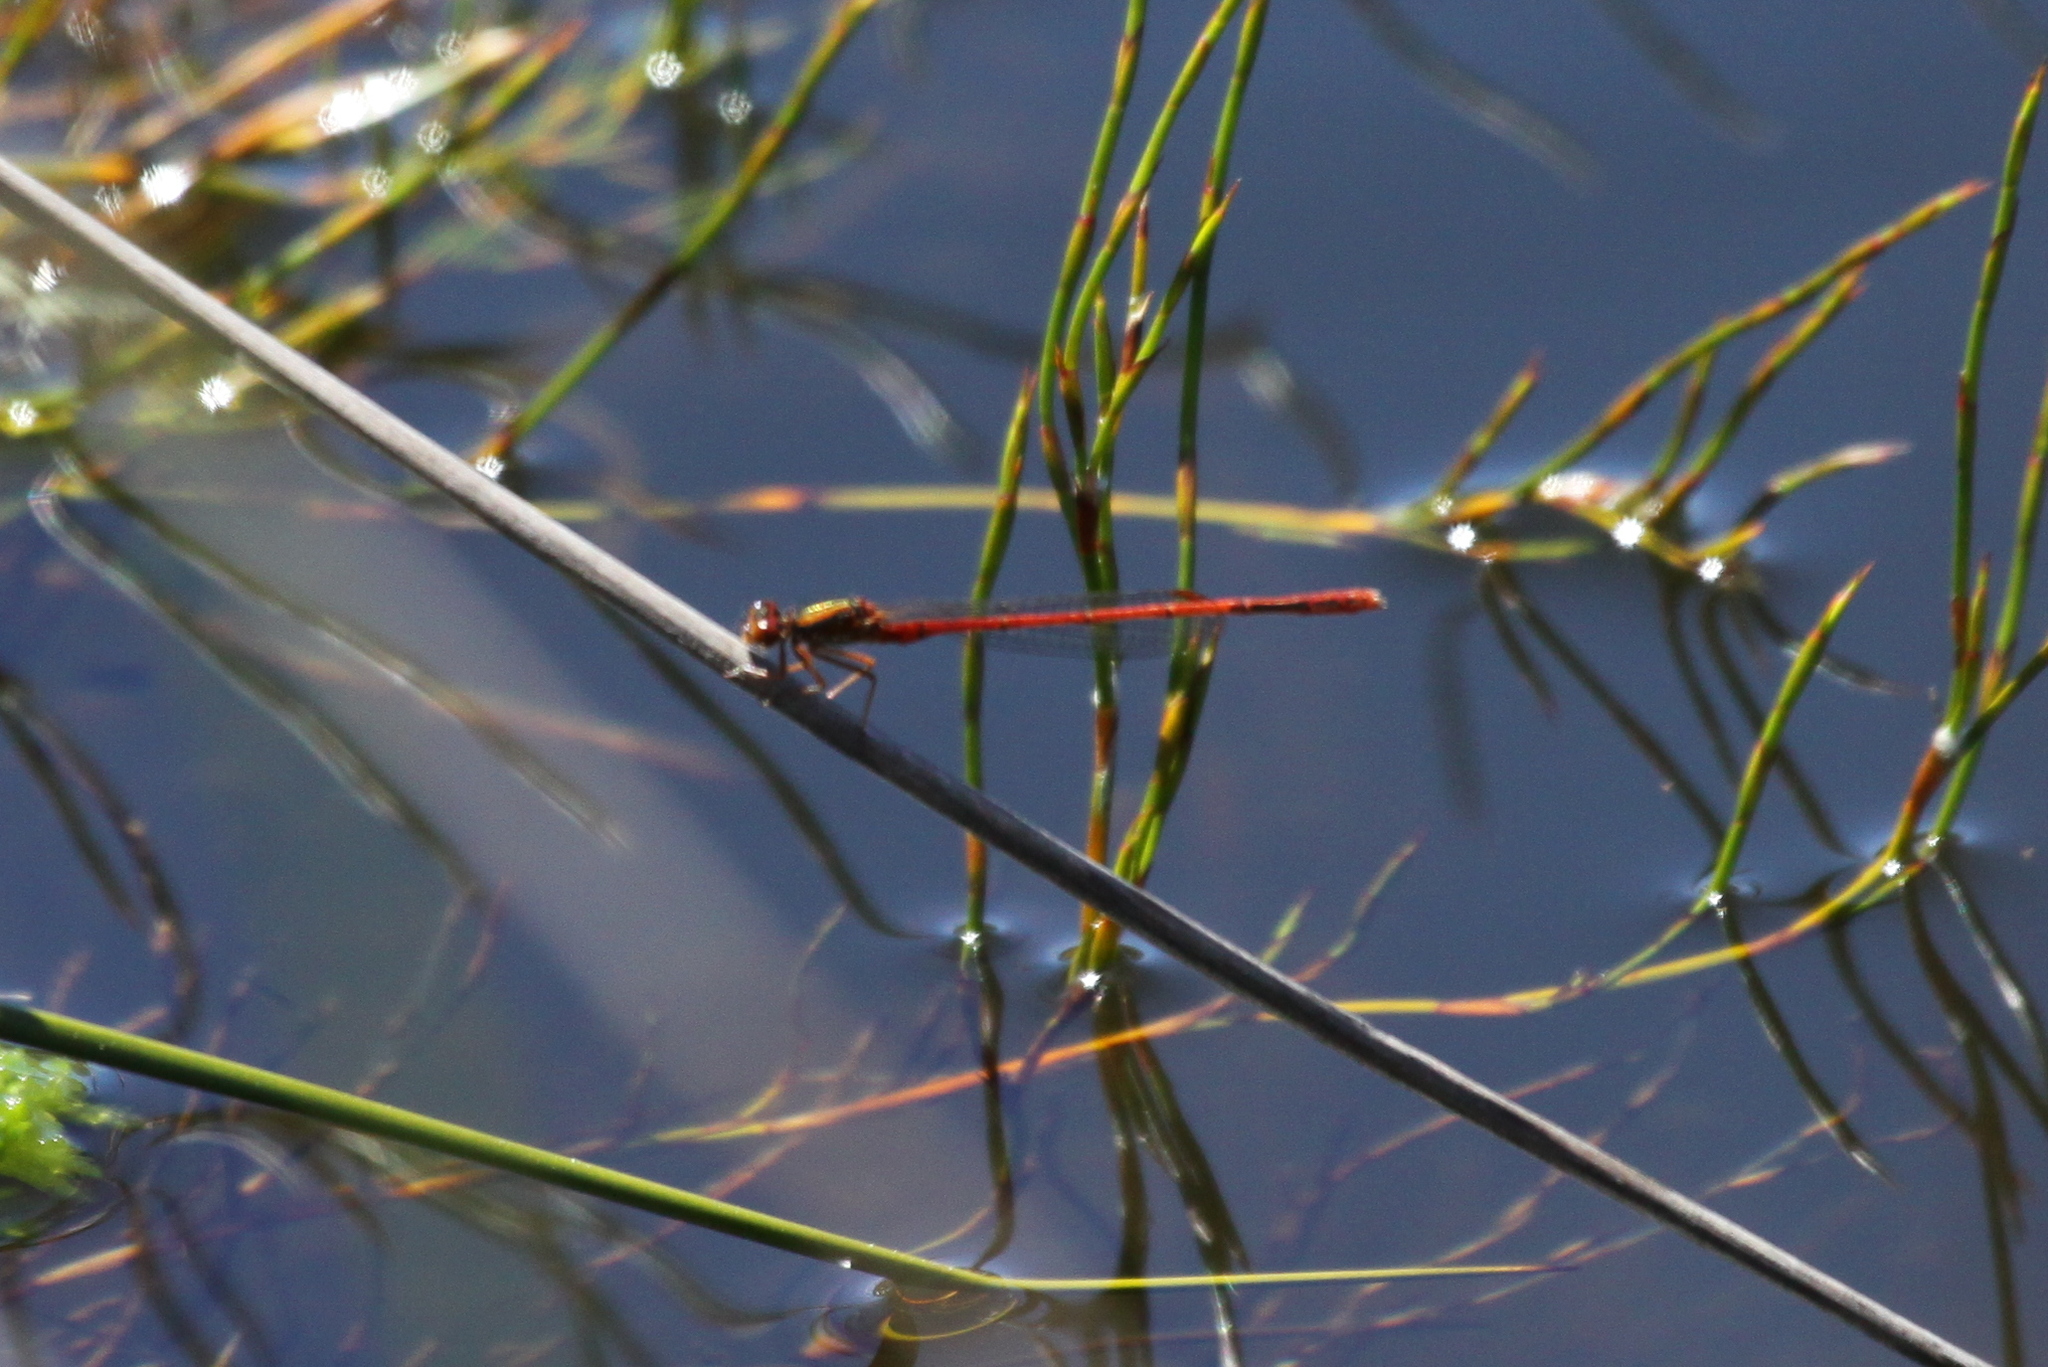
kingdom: Animalia
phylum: Arthropoda
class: Insecta
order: Odonata
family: Coenagrionidae
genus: Xanthocnemis
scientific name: Xanthocnemis zealandica
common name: Common redcoat damselfly
